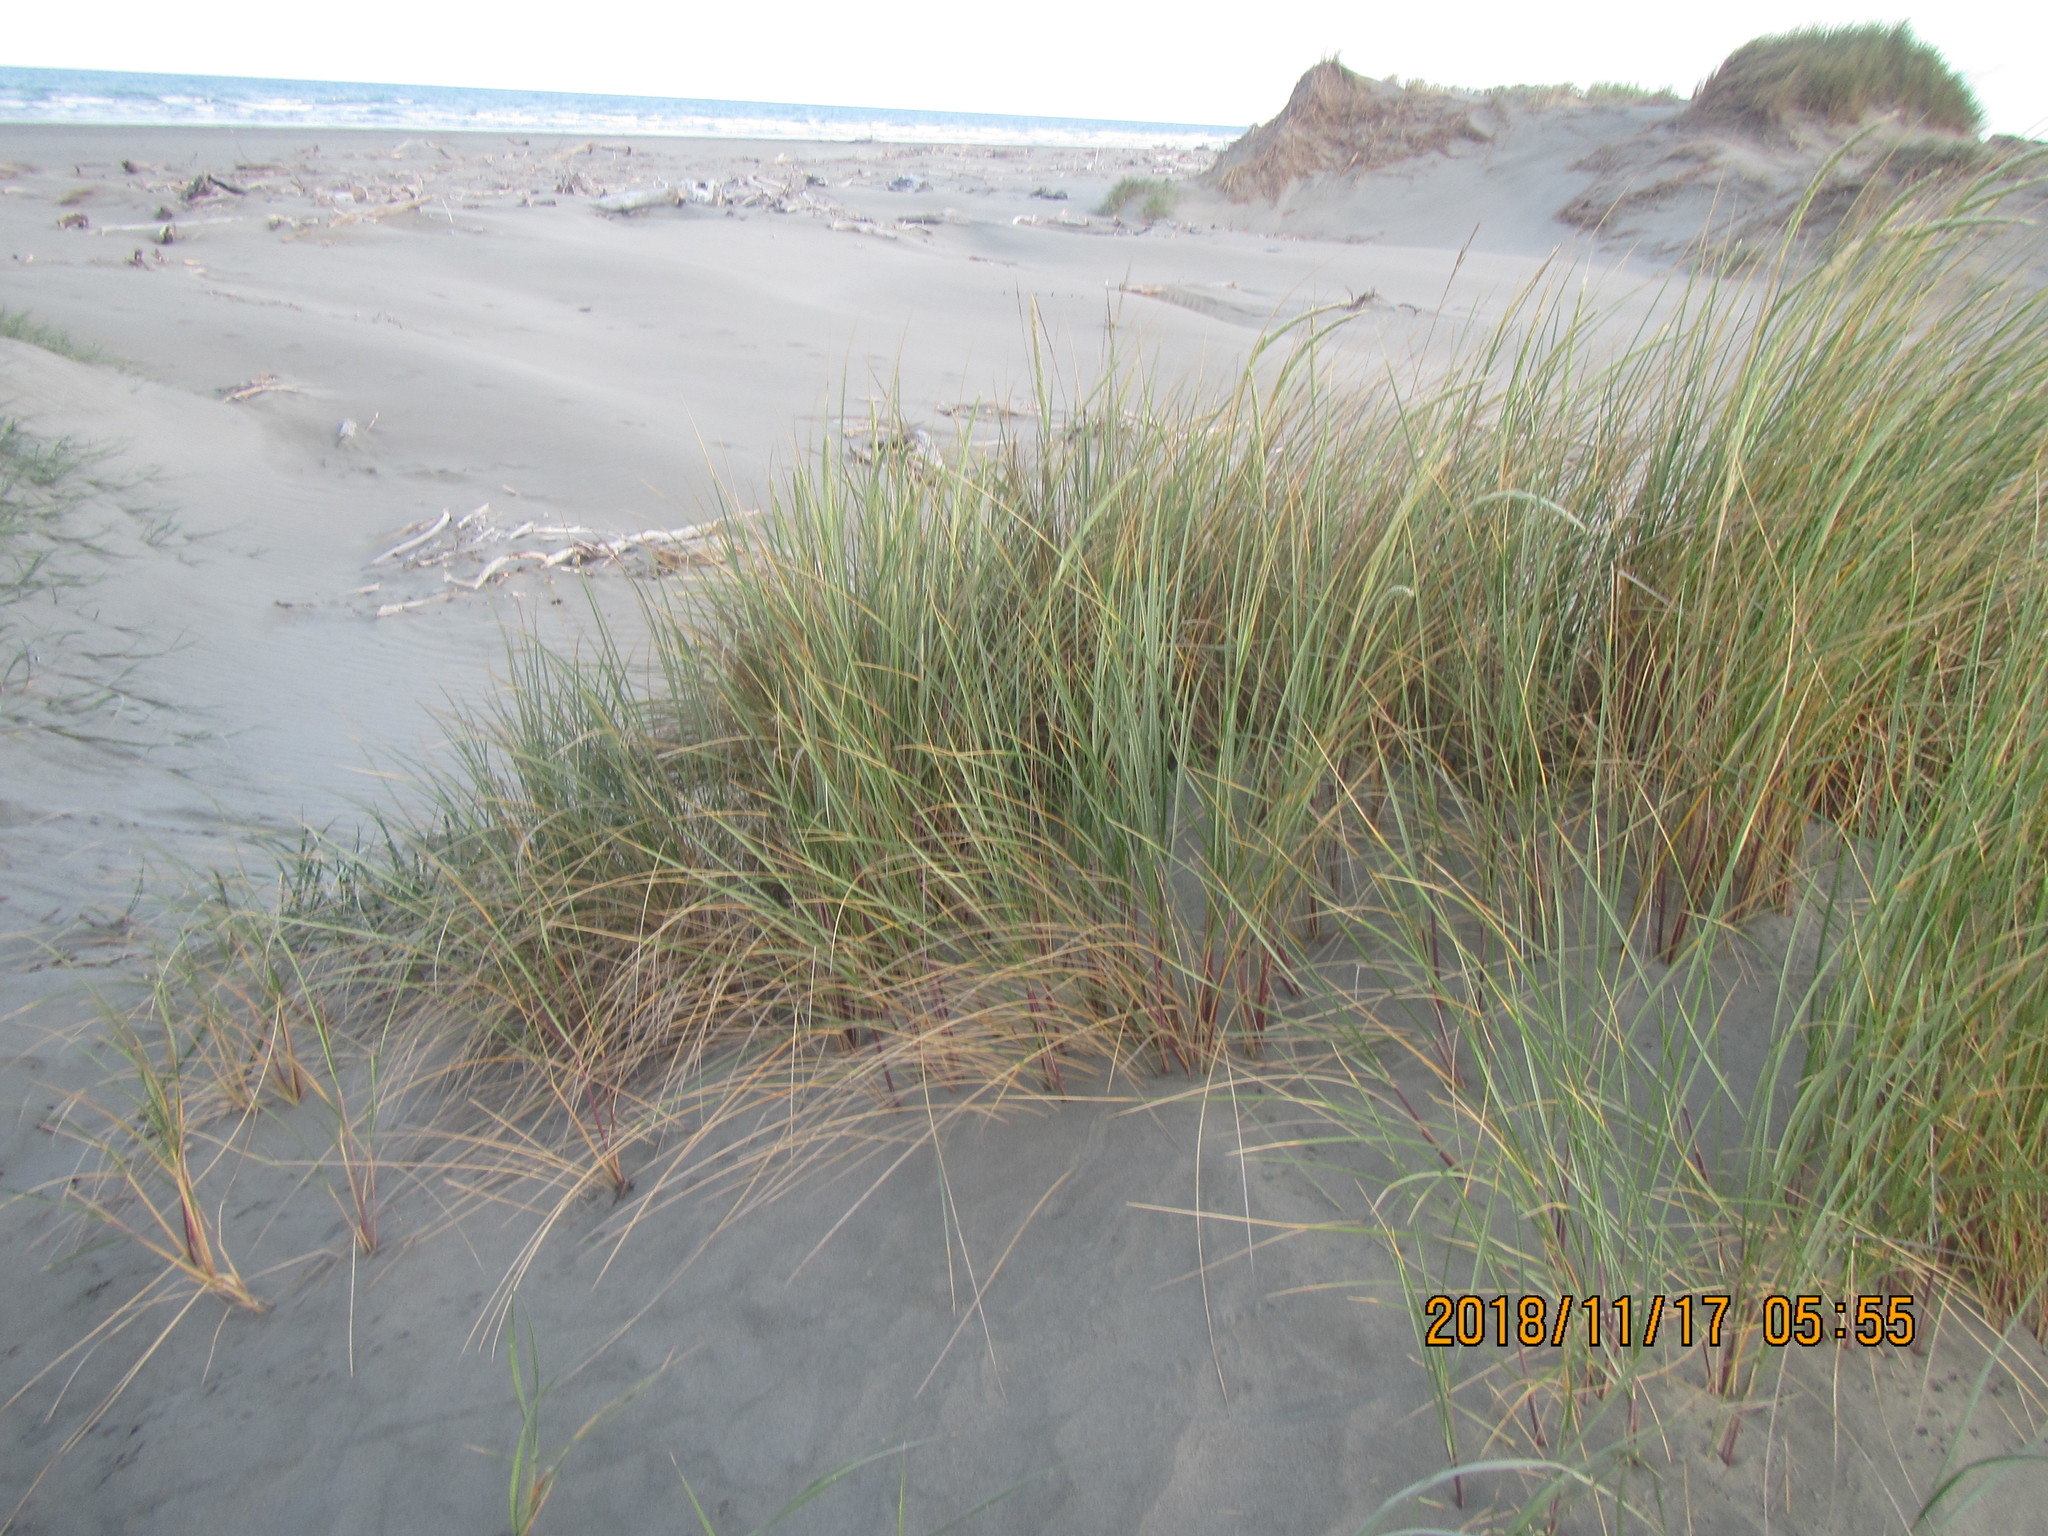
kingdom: Plantae
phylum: Tracheophyta
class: Liliopsida
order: Poales
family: Poaceae
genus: Calamagrostis
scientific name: Calamagrostis arenaria
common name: European beachgrass
